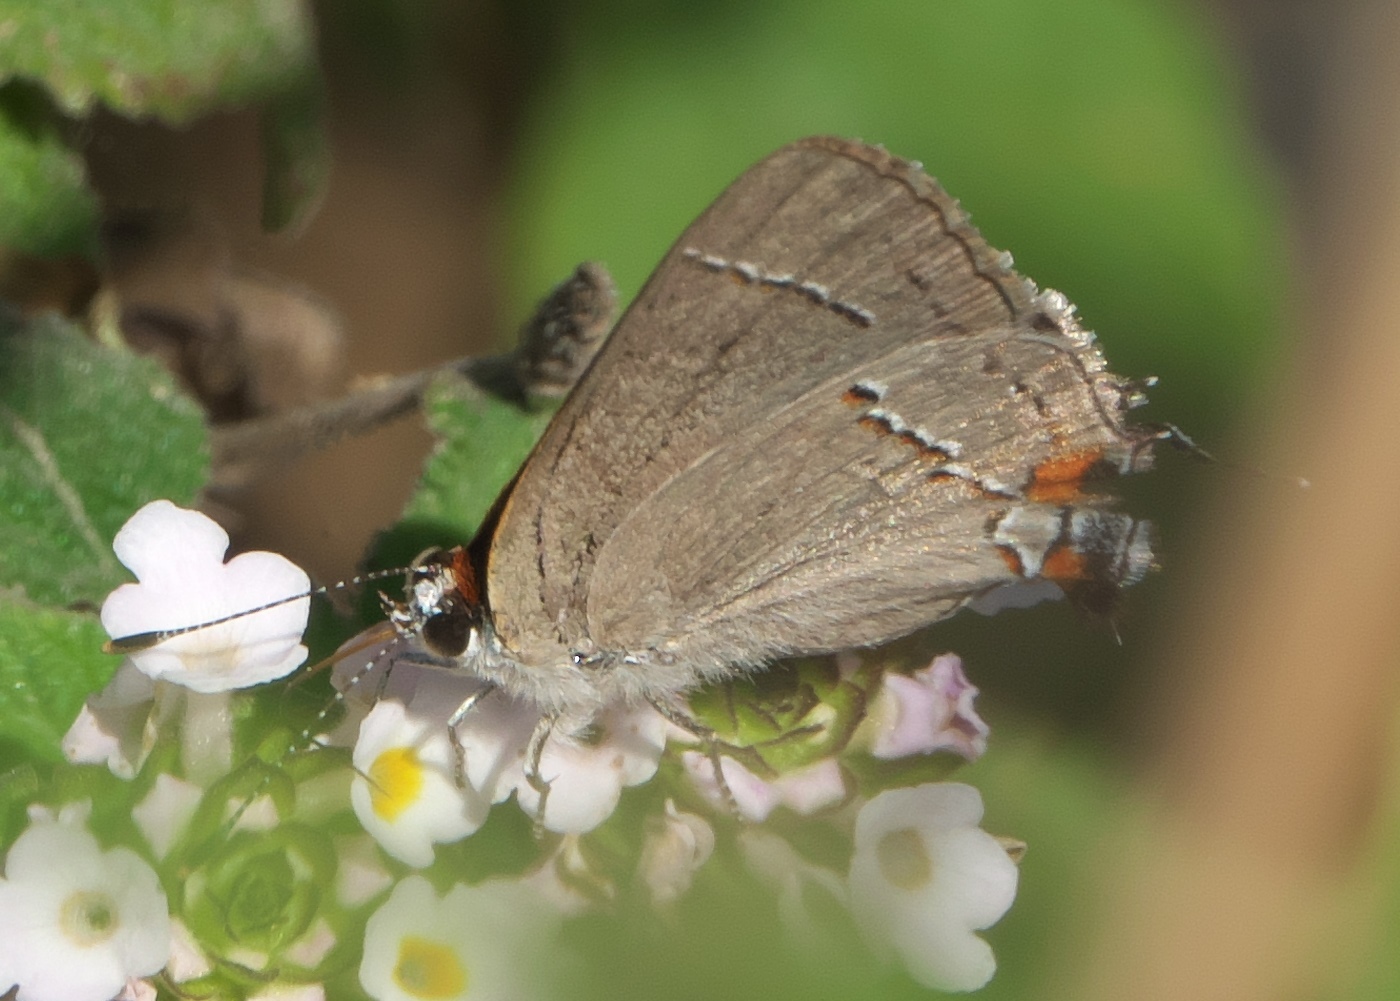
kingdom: Animalia
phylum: Arthropoda
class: Insecta
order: Lepidoptera
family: Lycaenidae
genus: Strymon
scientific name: Strymon melinus
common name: Gray hairstreak
